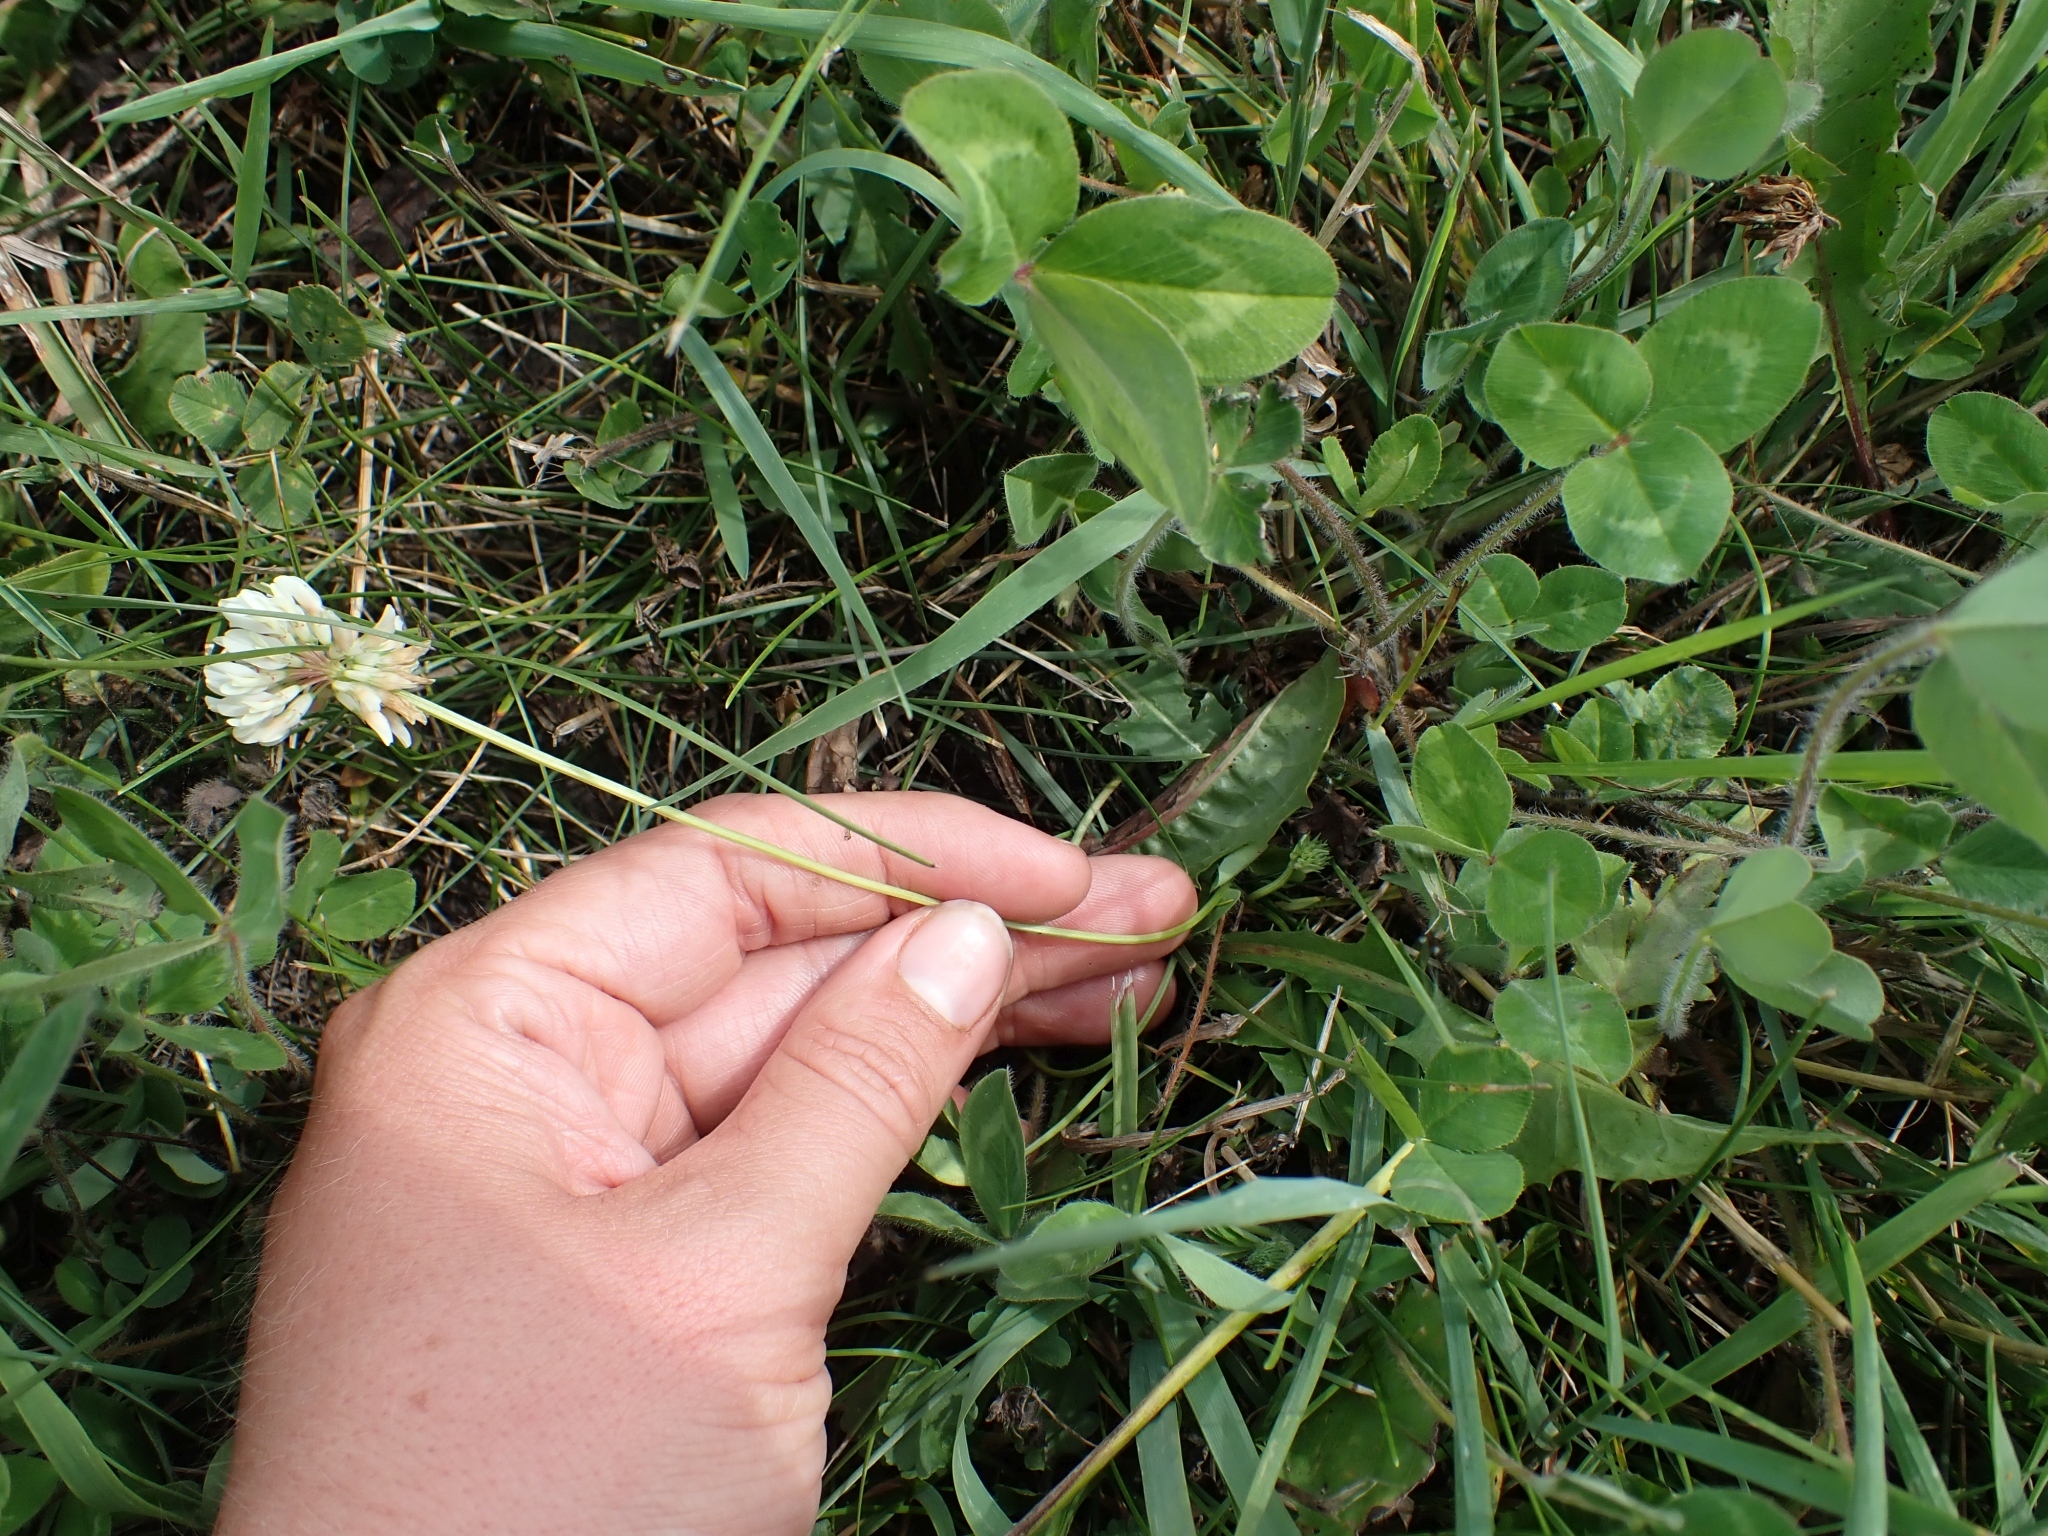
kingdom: Plantae
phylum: Tracheophyta
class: Magnoliopsida
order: Fabales
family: Fabaceae
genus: Trifolium
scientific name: Trifolium repens
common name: White clover
